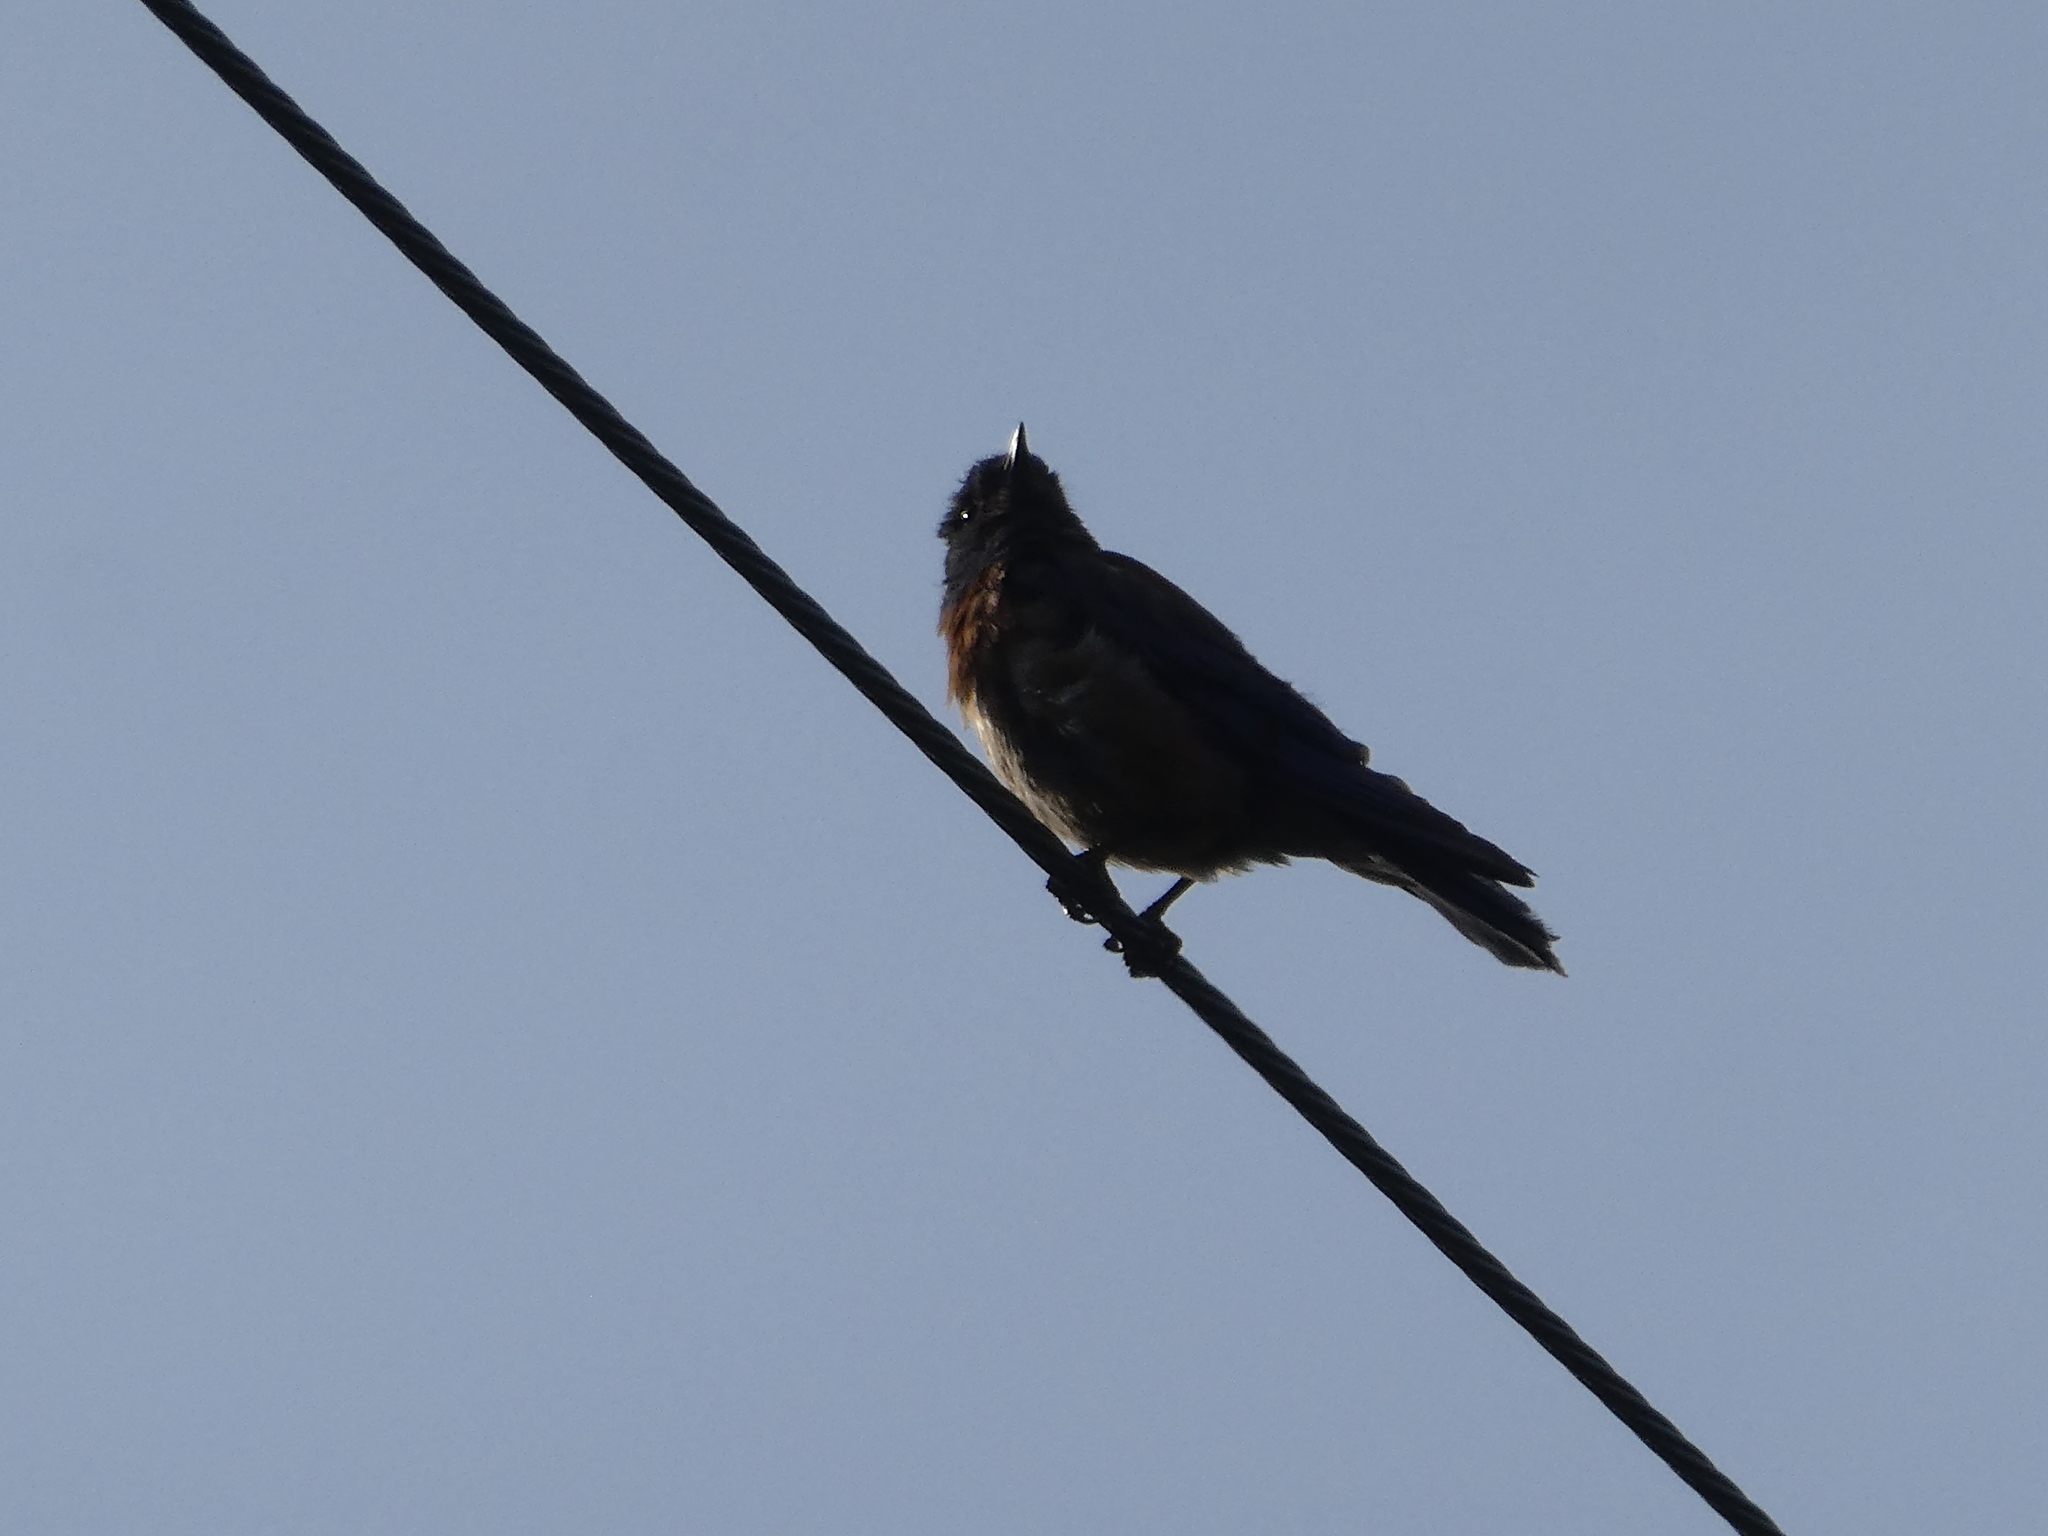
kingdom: Animalia
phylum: Chordata
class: Aves
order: Passeriformes
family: Turdidae
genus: Sialia
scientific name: Sialia mexicana
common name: Western bluebird
